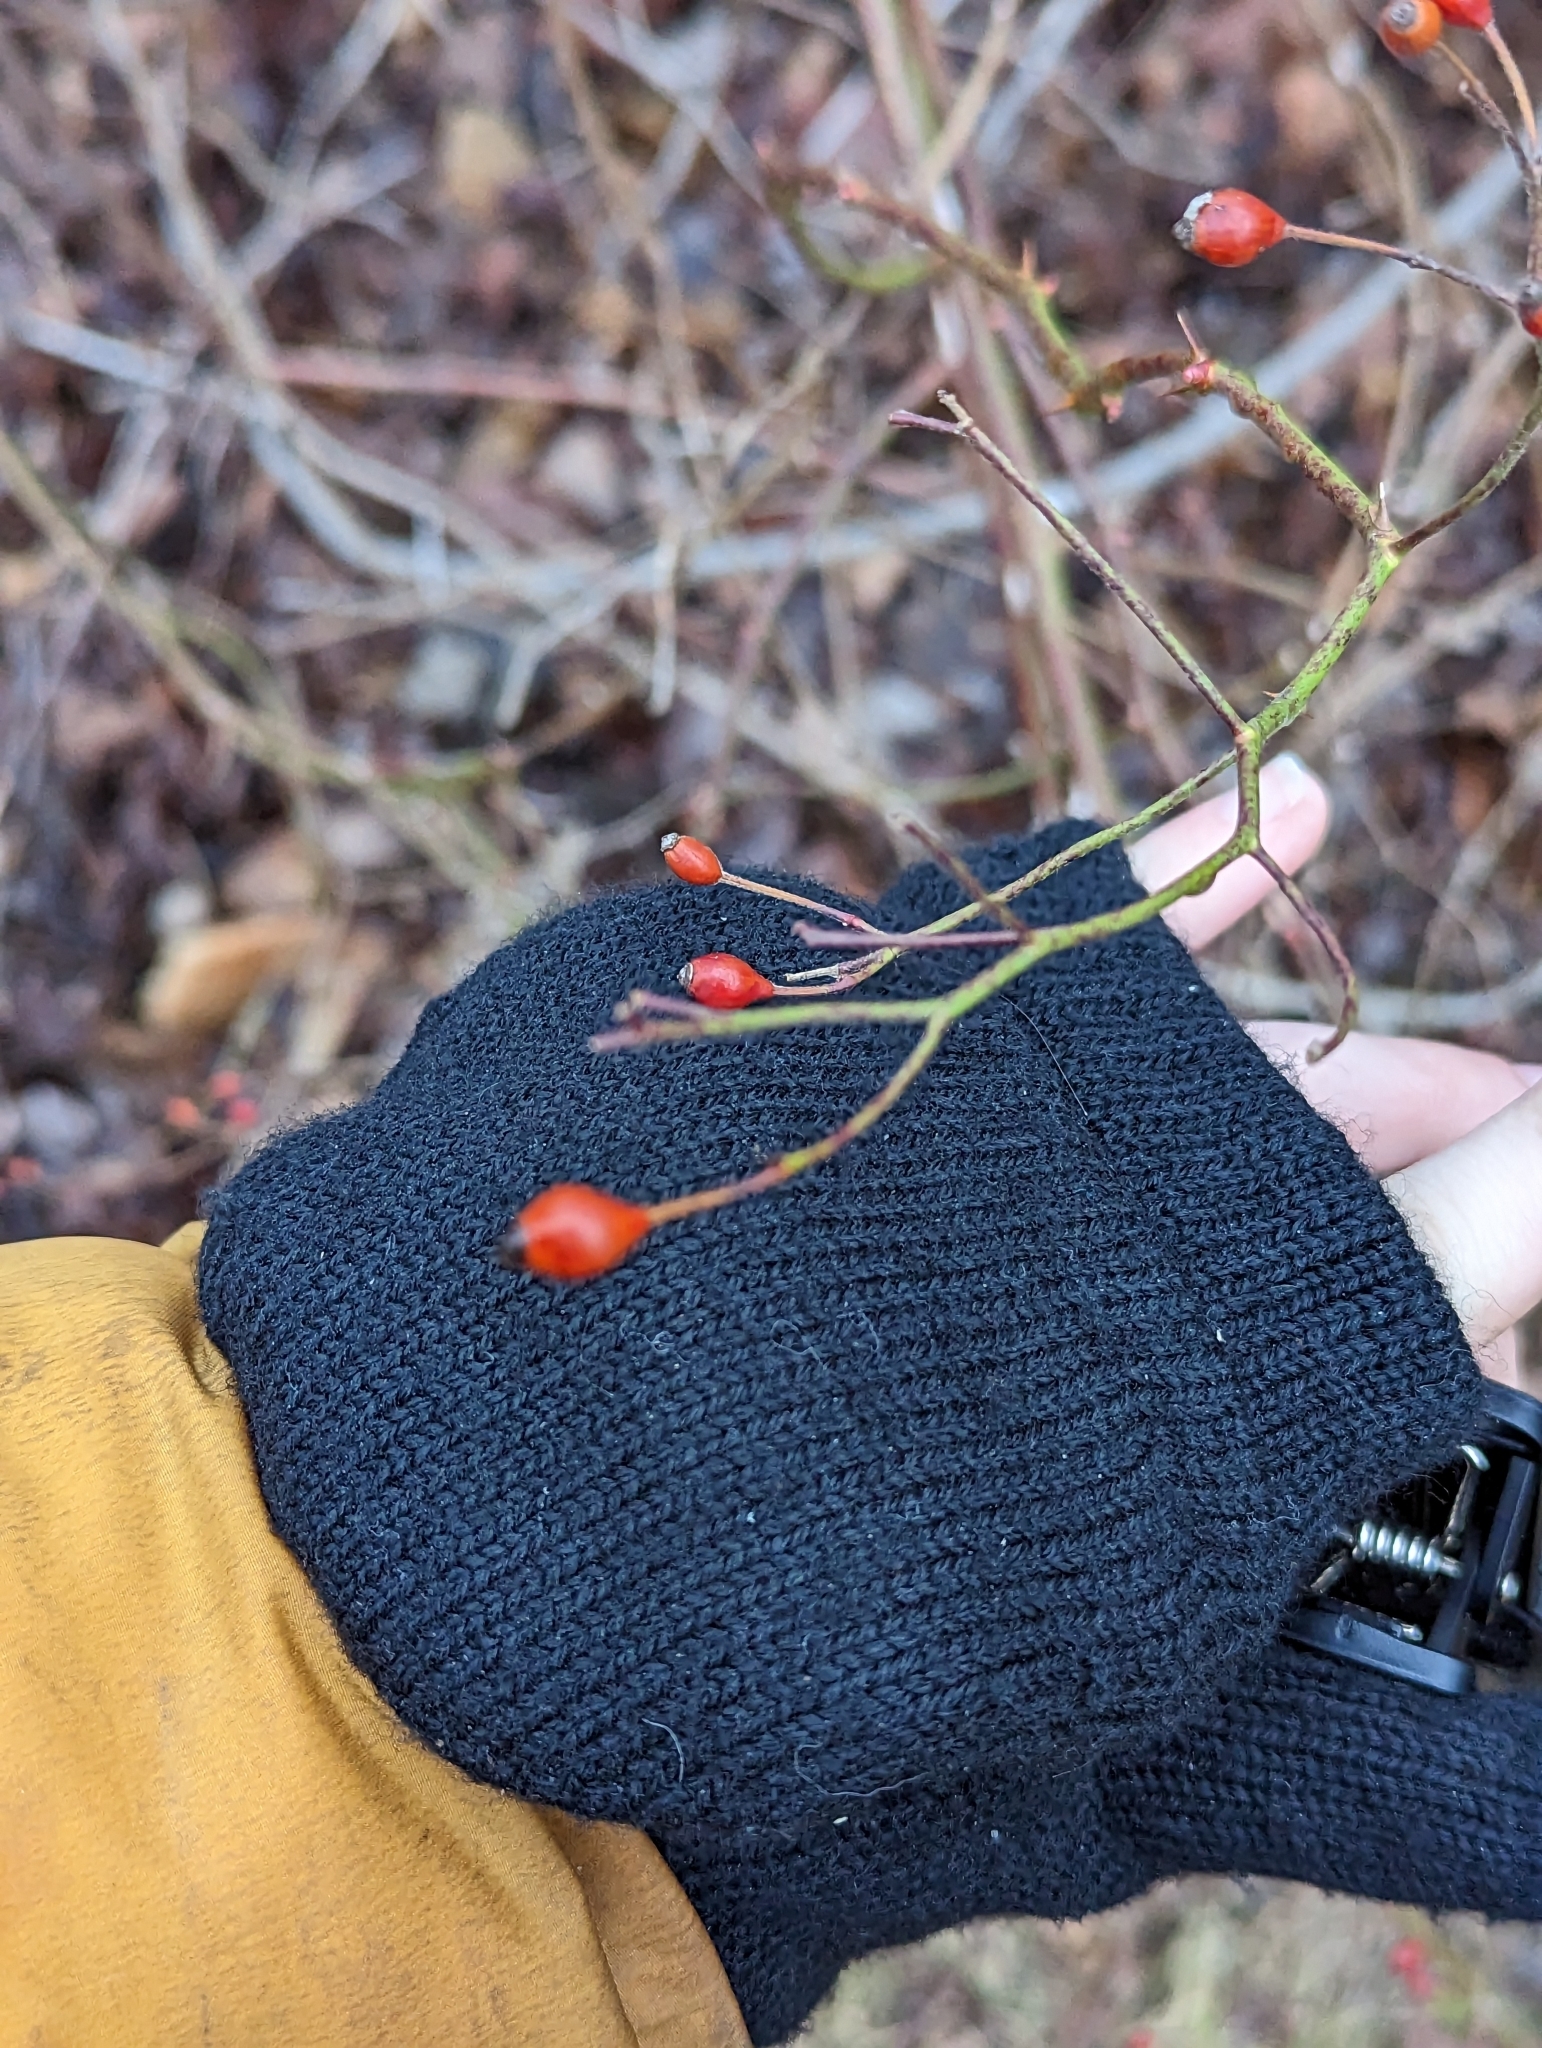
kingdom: Plantae
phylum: Tracheophyta
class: Magnoliopsida
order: Rosales
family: Rosaceae
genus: Rosa
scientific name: Rosa multiflora
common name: Multiflora rose
